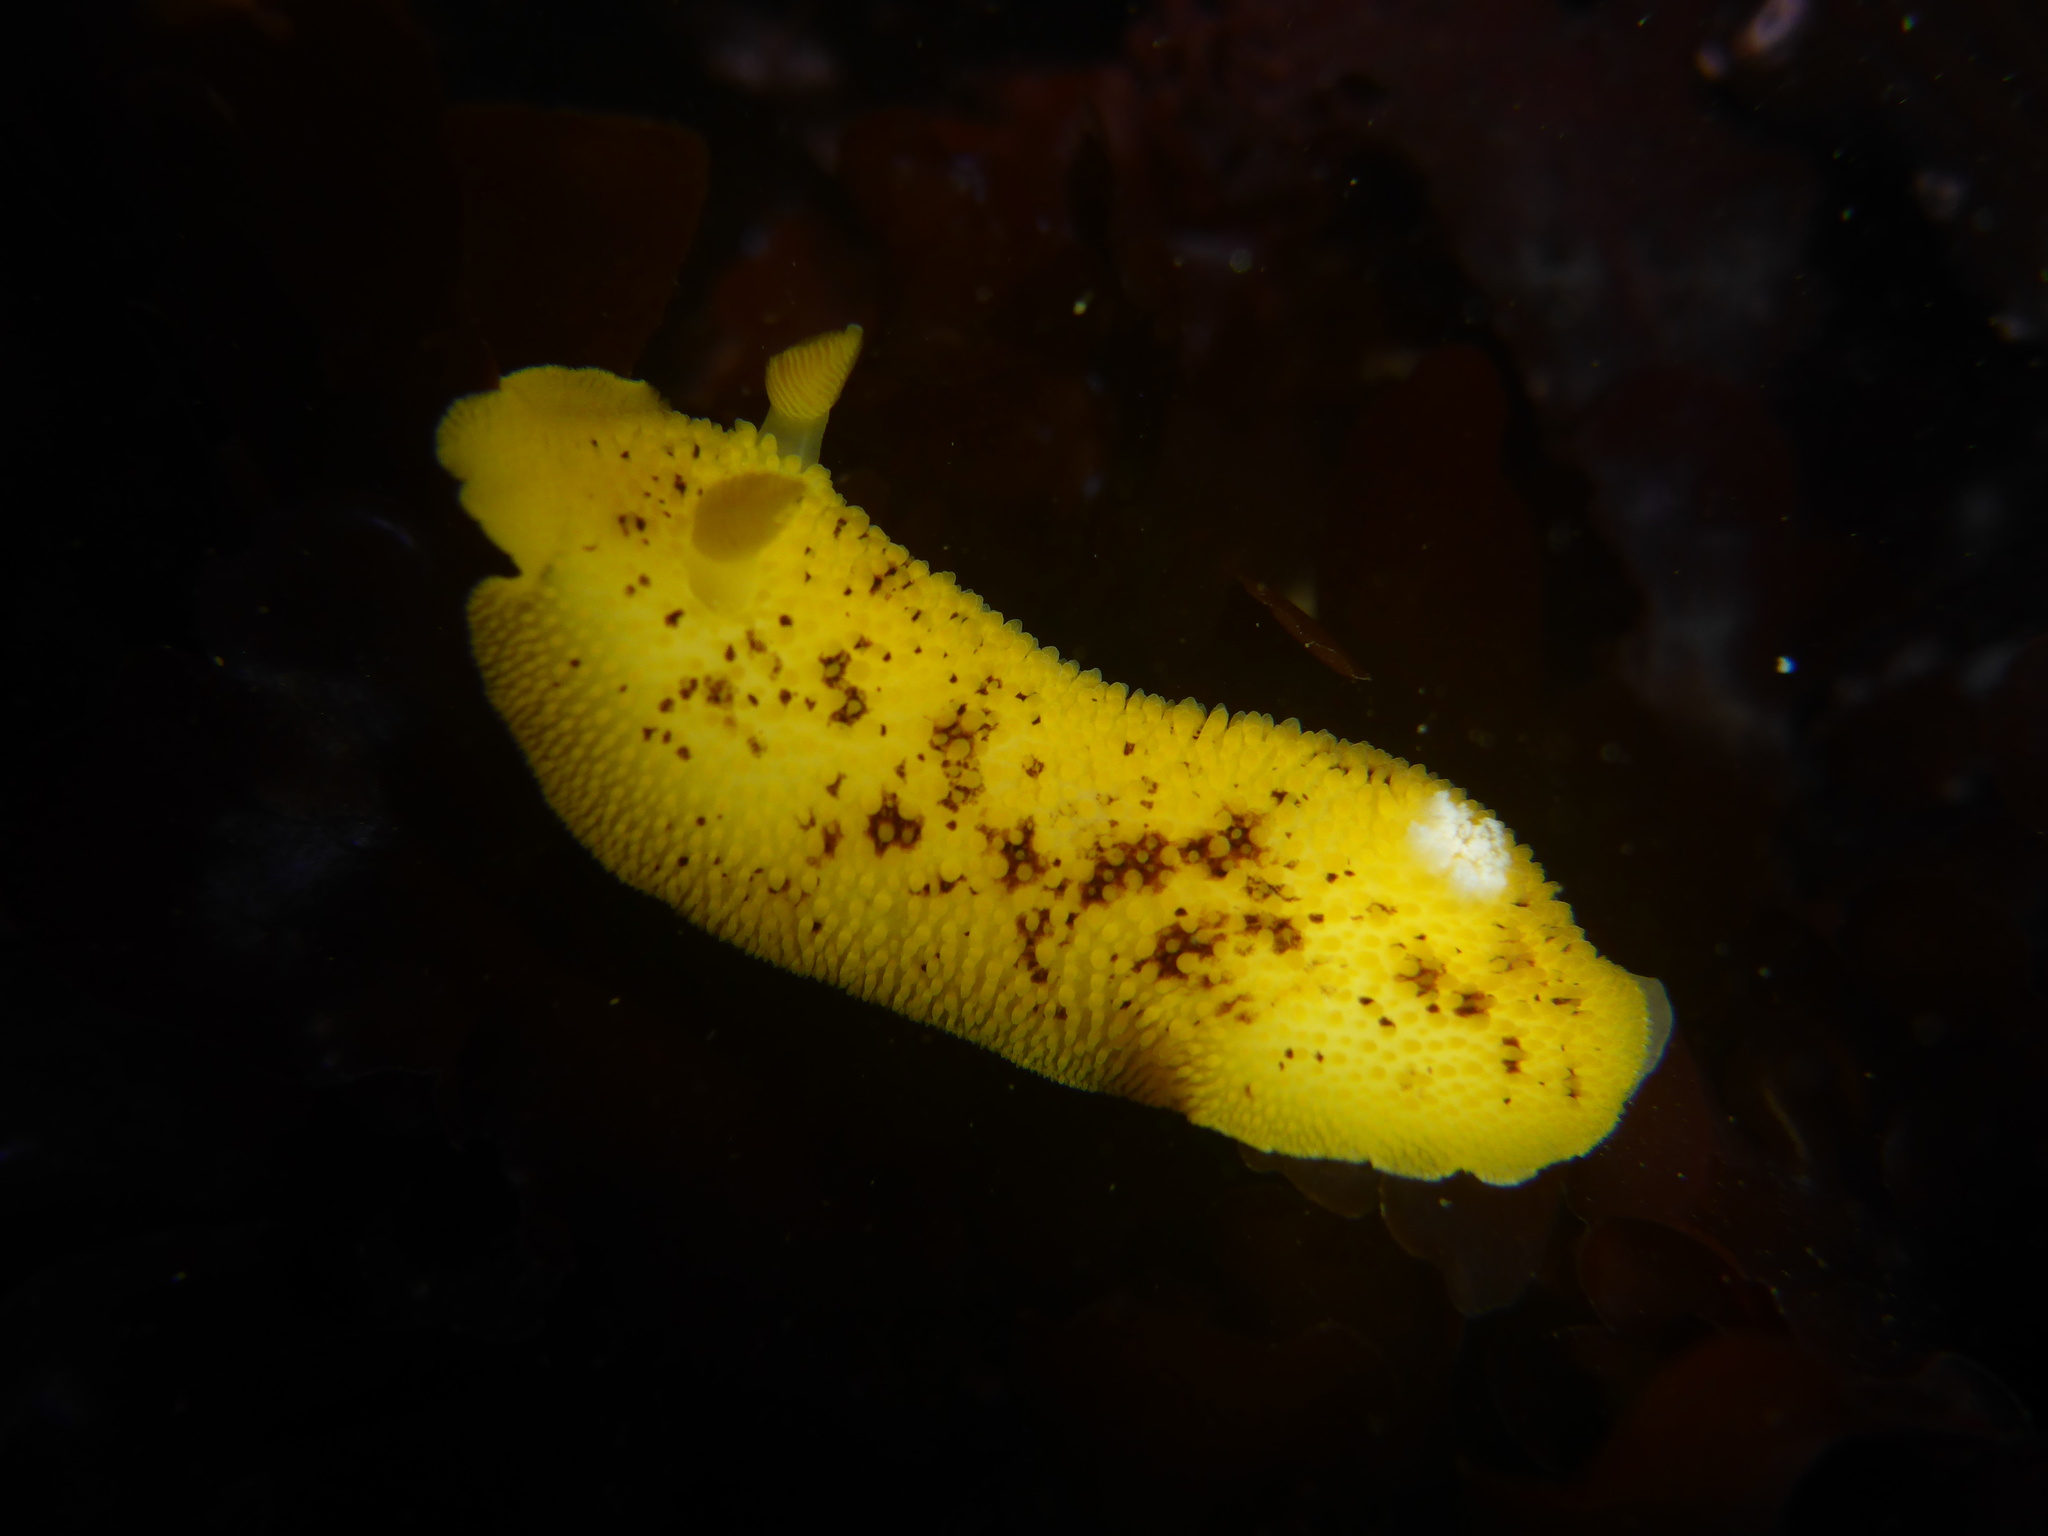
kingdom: Animalia
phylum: Mollusca
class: Gastropoda
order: Nudibranchia
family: Discodorididae
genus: Peltodoris
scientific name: Peltodoris nobilis
